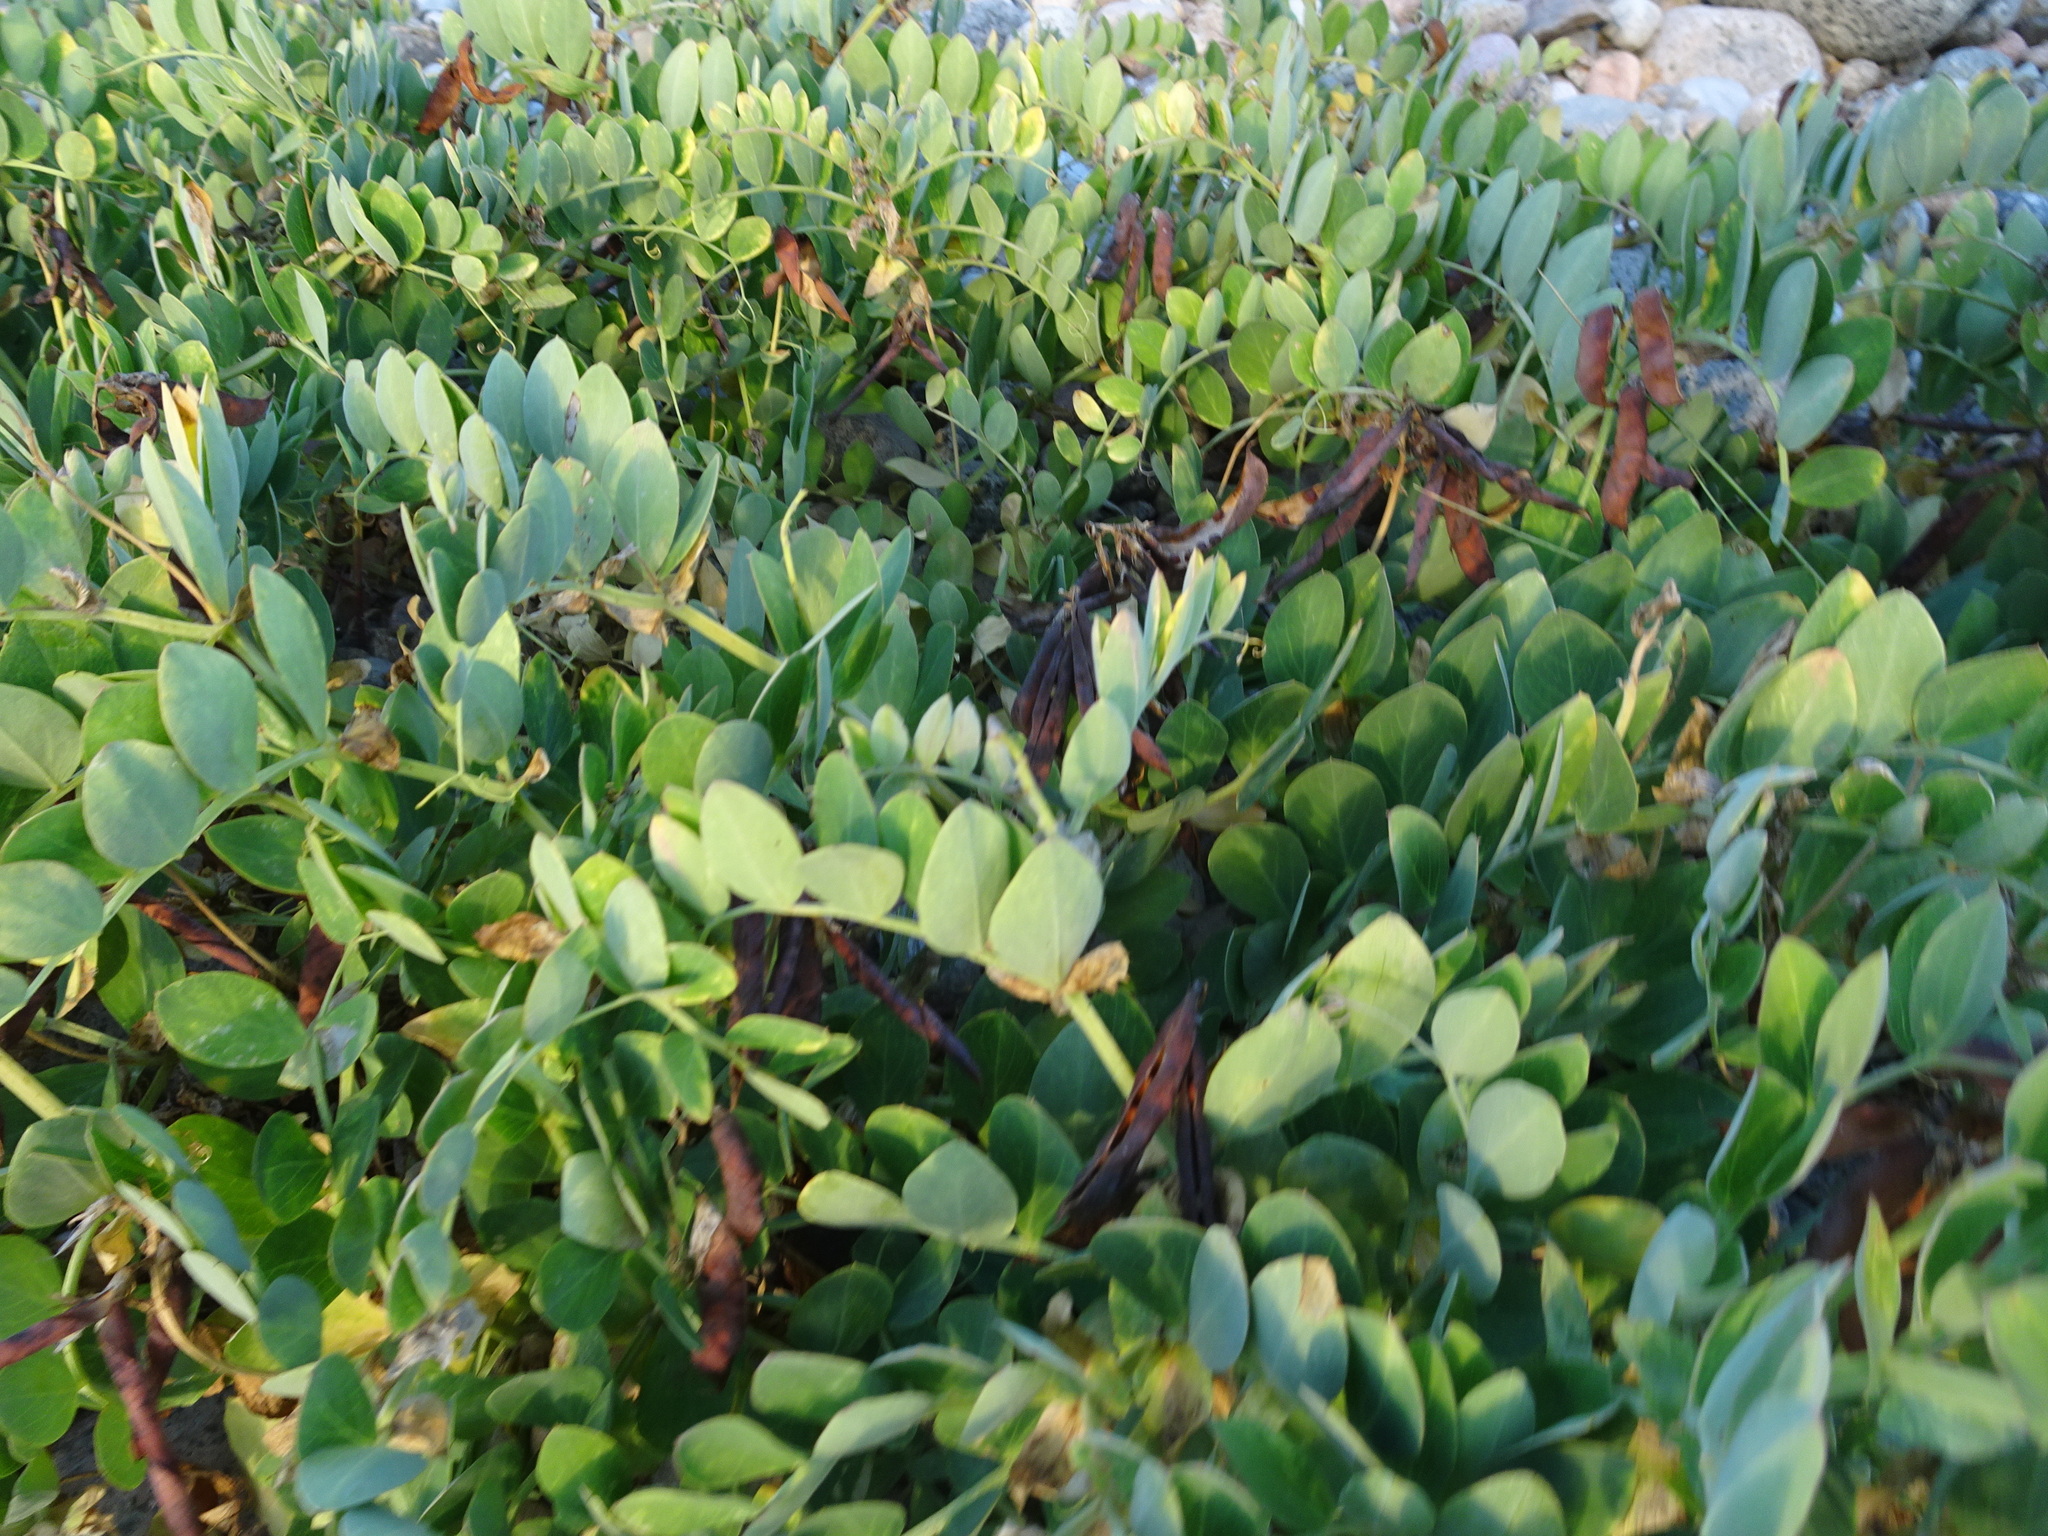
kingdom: Plantae
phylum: Tracheophyta
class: Magnoliopsida
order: Fabales
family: Fabaceae
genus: Lathyrus
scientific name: Lathyrus japonicus
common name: Sea pea
